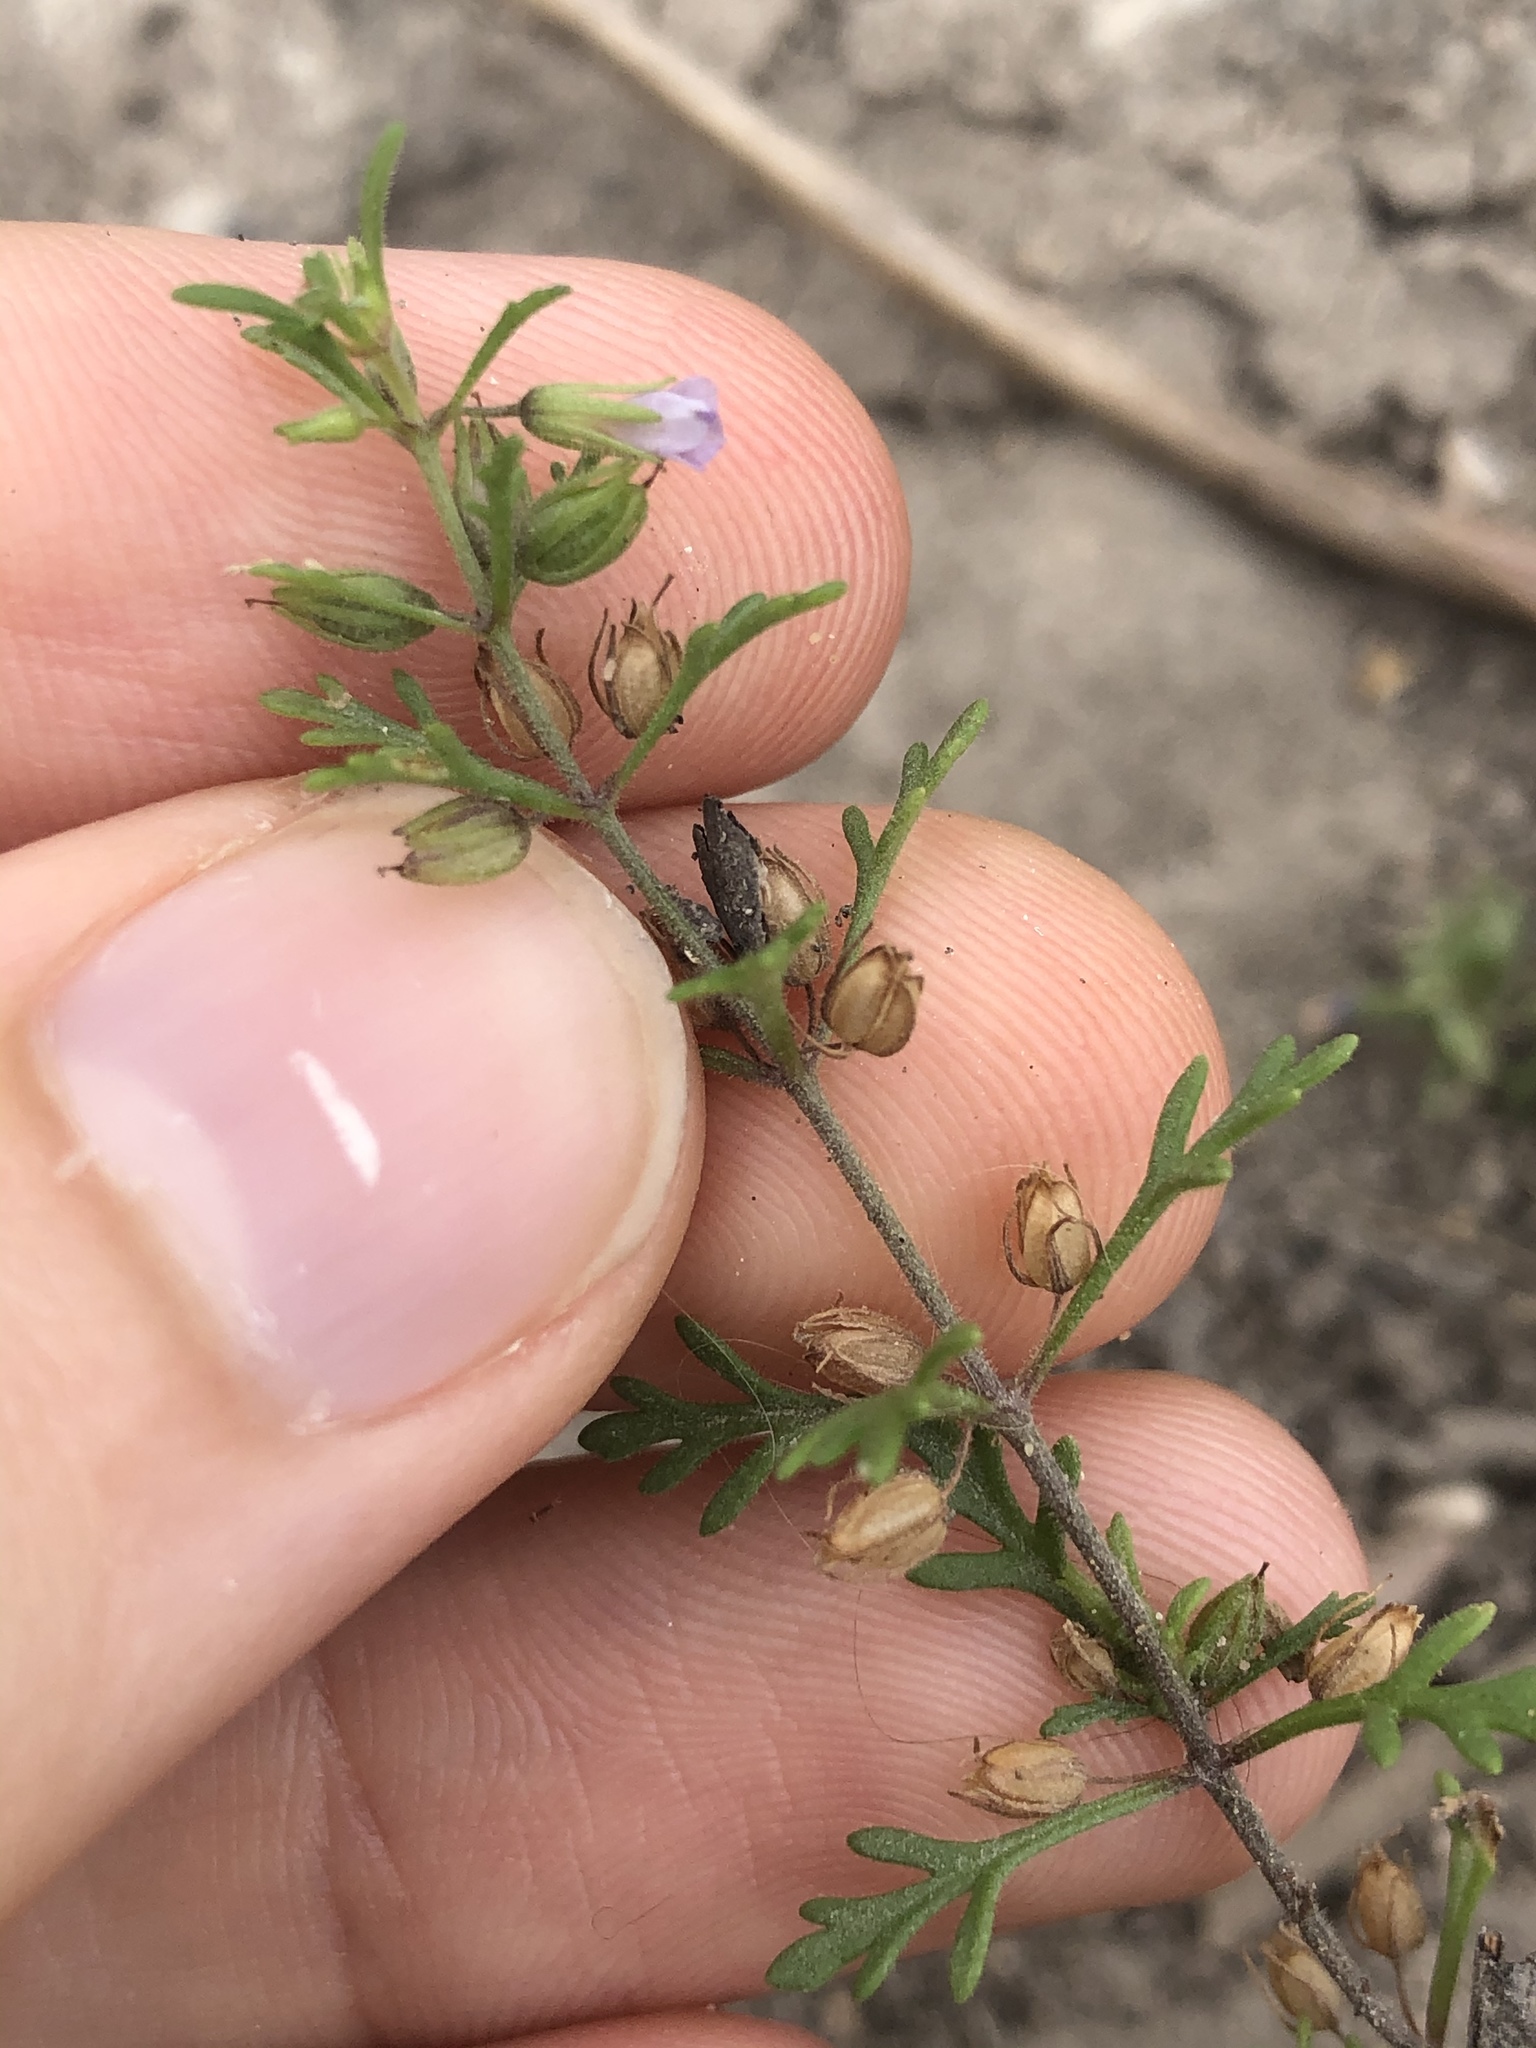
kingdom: Plantae
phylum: Tracheophyta
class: Magnoliopsida
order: Lamiales
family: Plantaginaceae
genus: Leucospora
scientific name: Leucospora multifida
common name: Narrow-leaf paleseed
